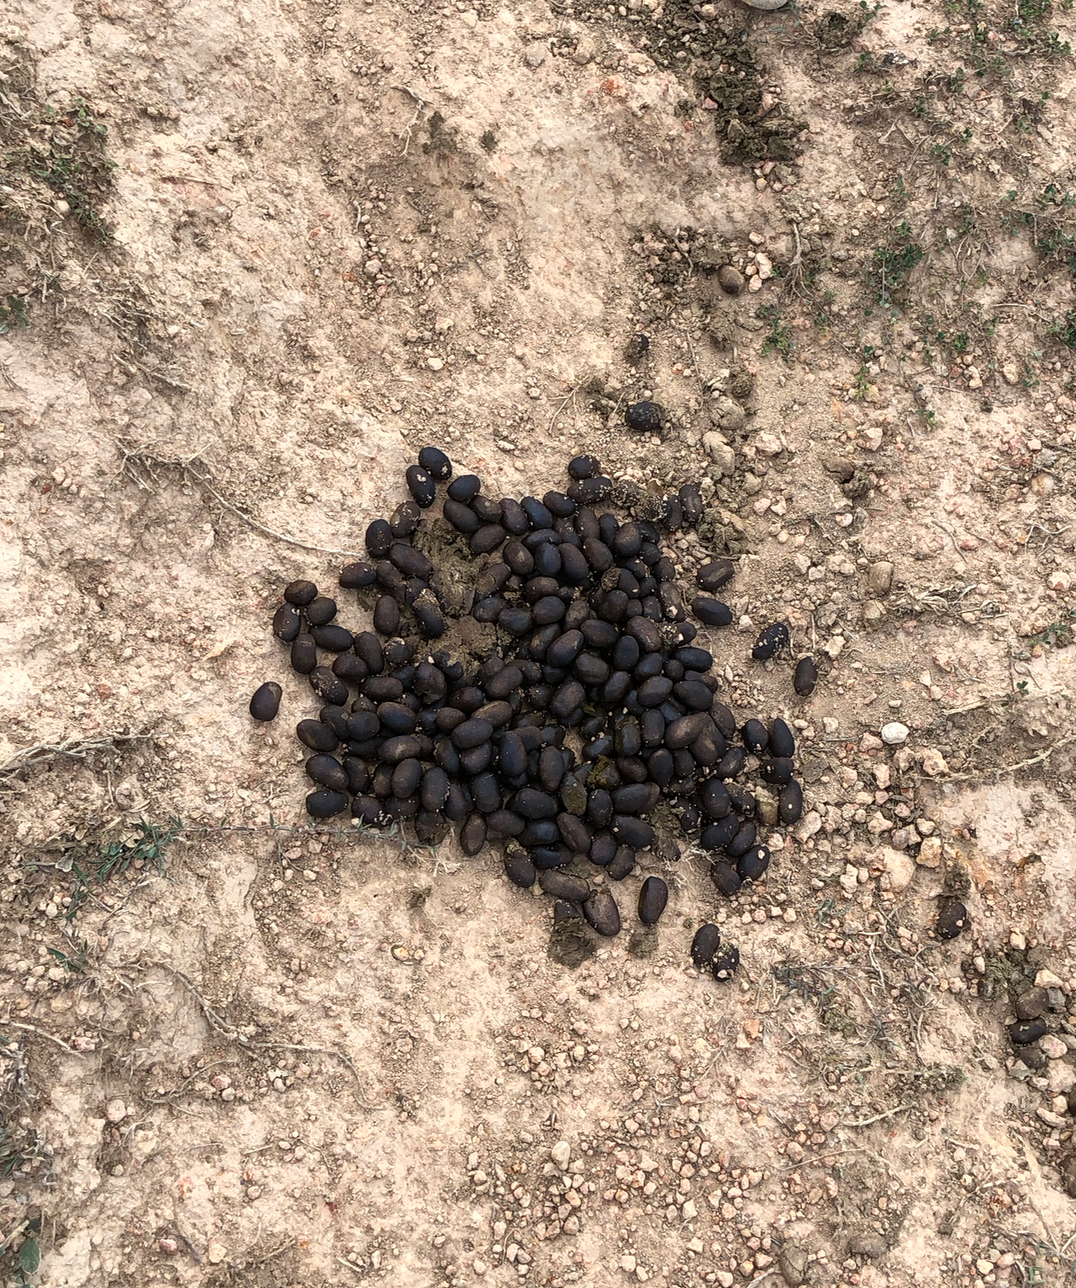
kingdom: Animalia
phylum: Chordata
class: Mammalia
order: Rodentia
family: Caviidae
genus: Hydrochoerus
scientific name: Hydrochoerus hydrochaeris
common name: Capybara
